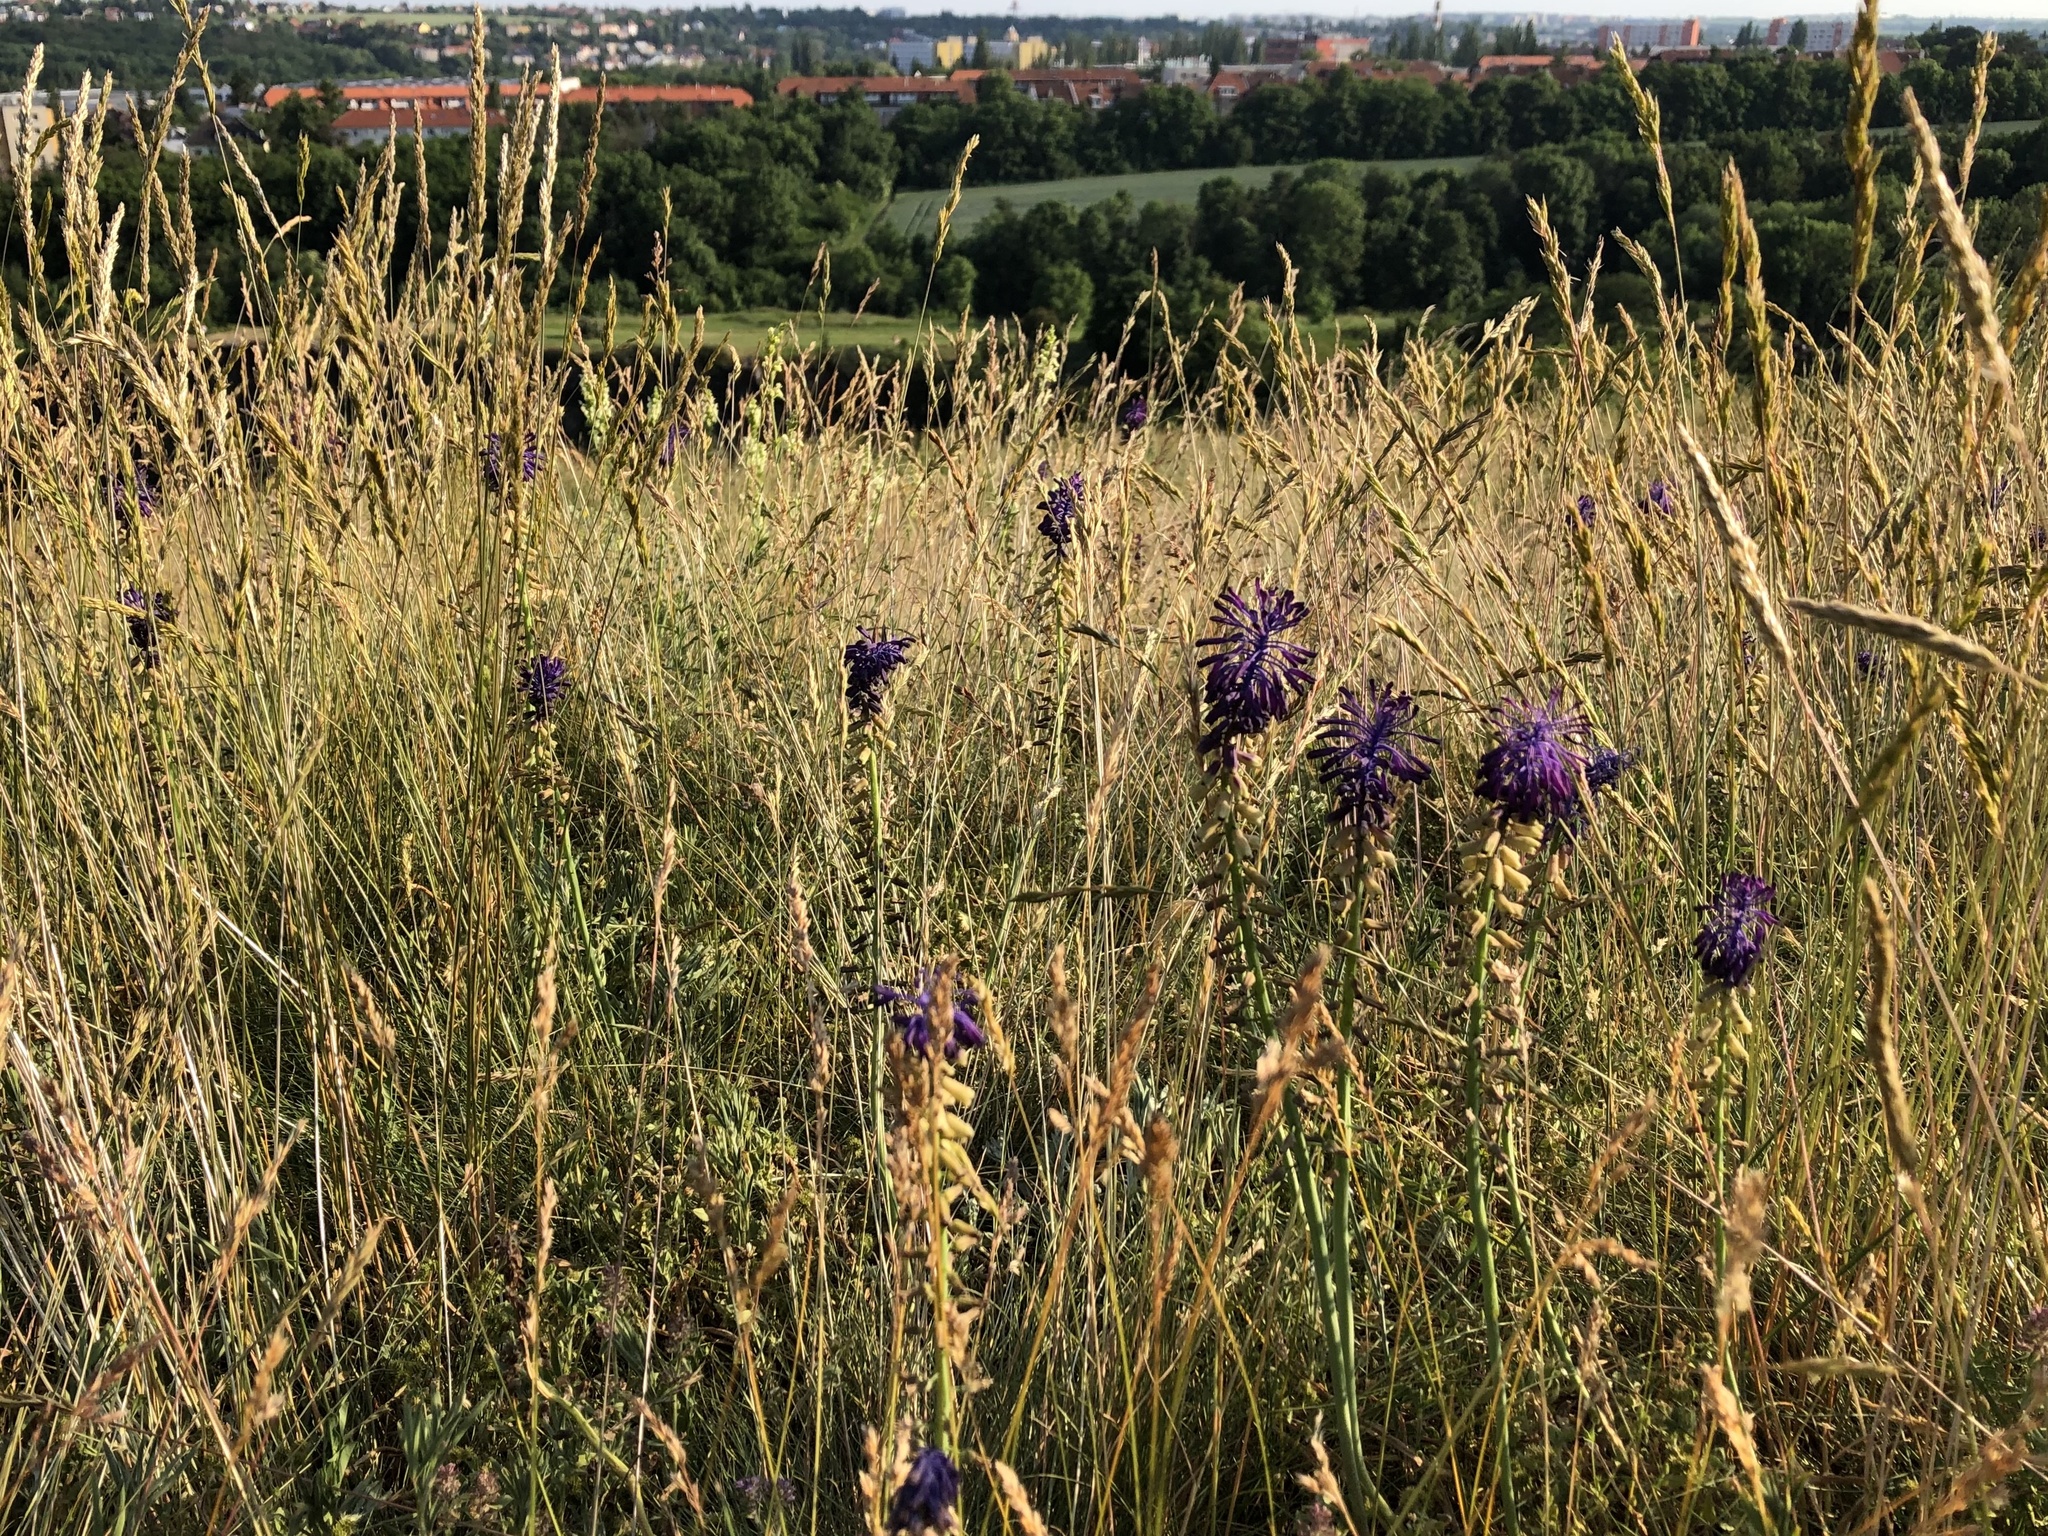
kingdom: Plantae
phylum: Tracheophyta
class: Liliopsida
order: Asparagales
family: Asparagaceae
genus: Muscari
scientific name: Muscari tenuiflorum
